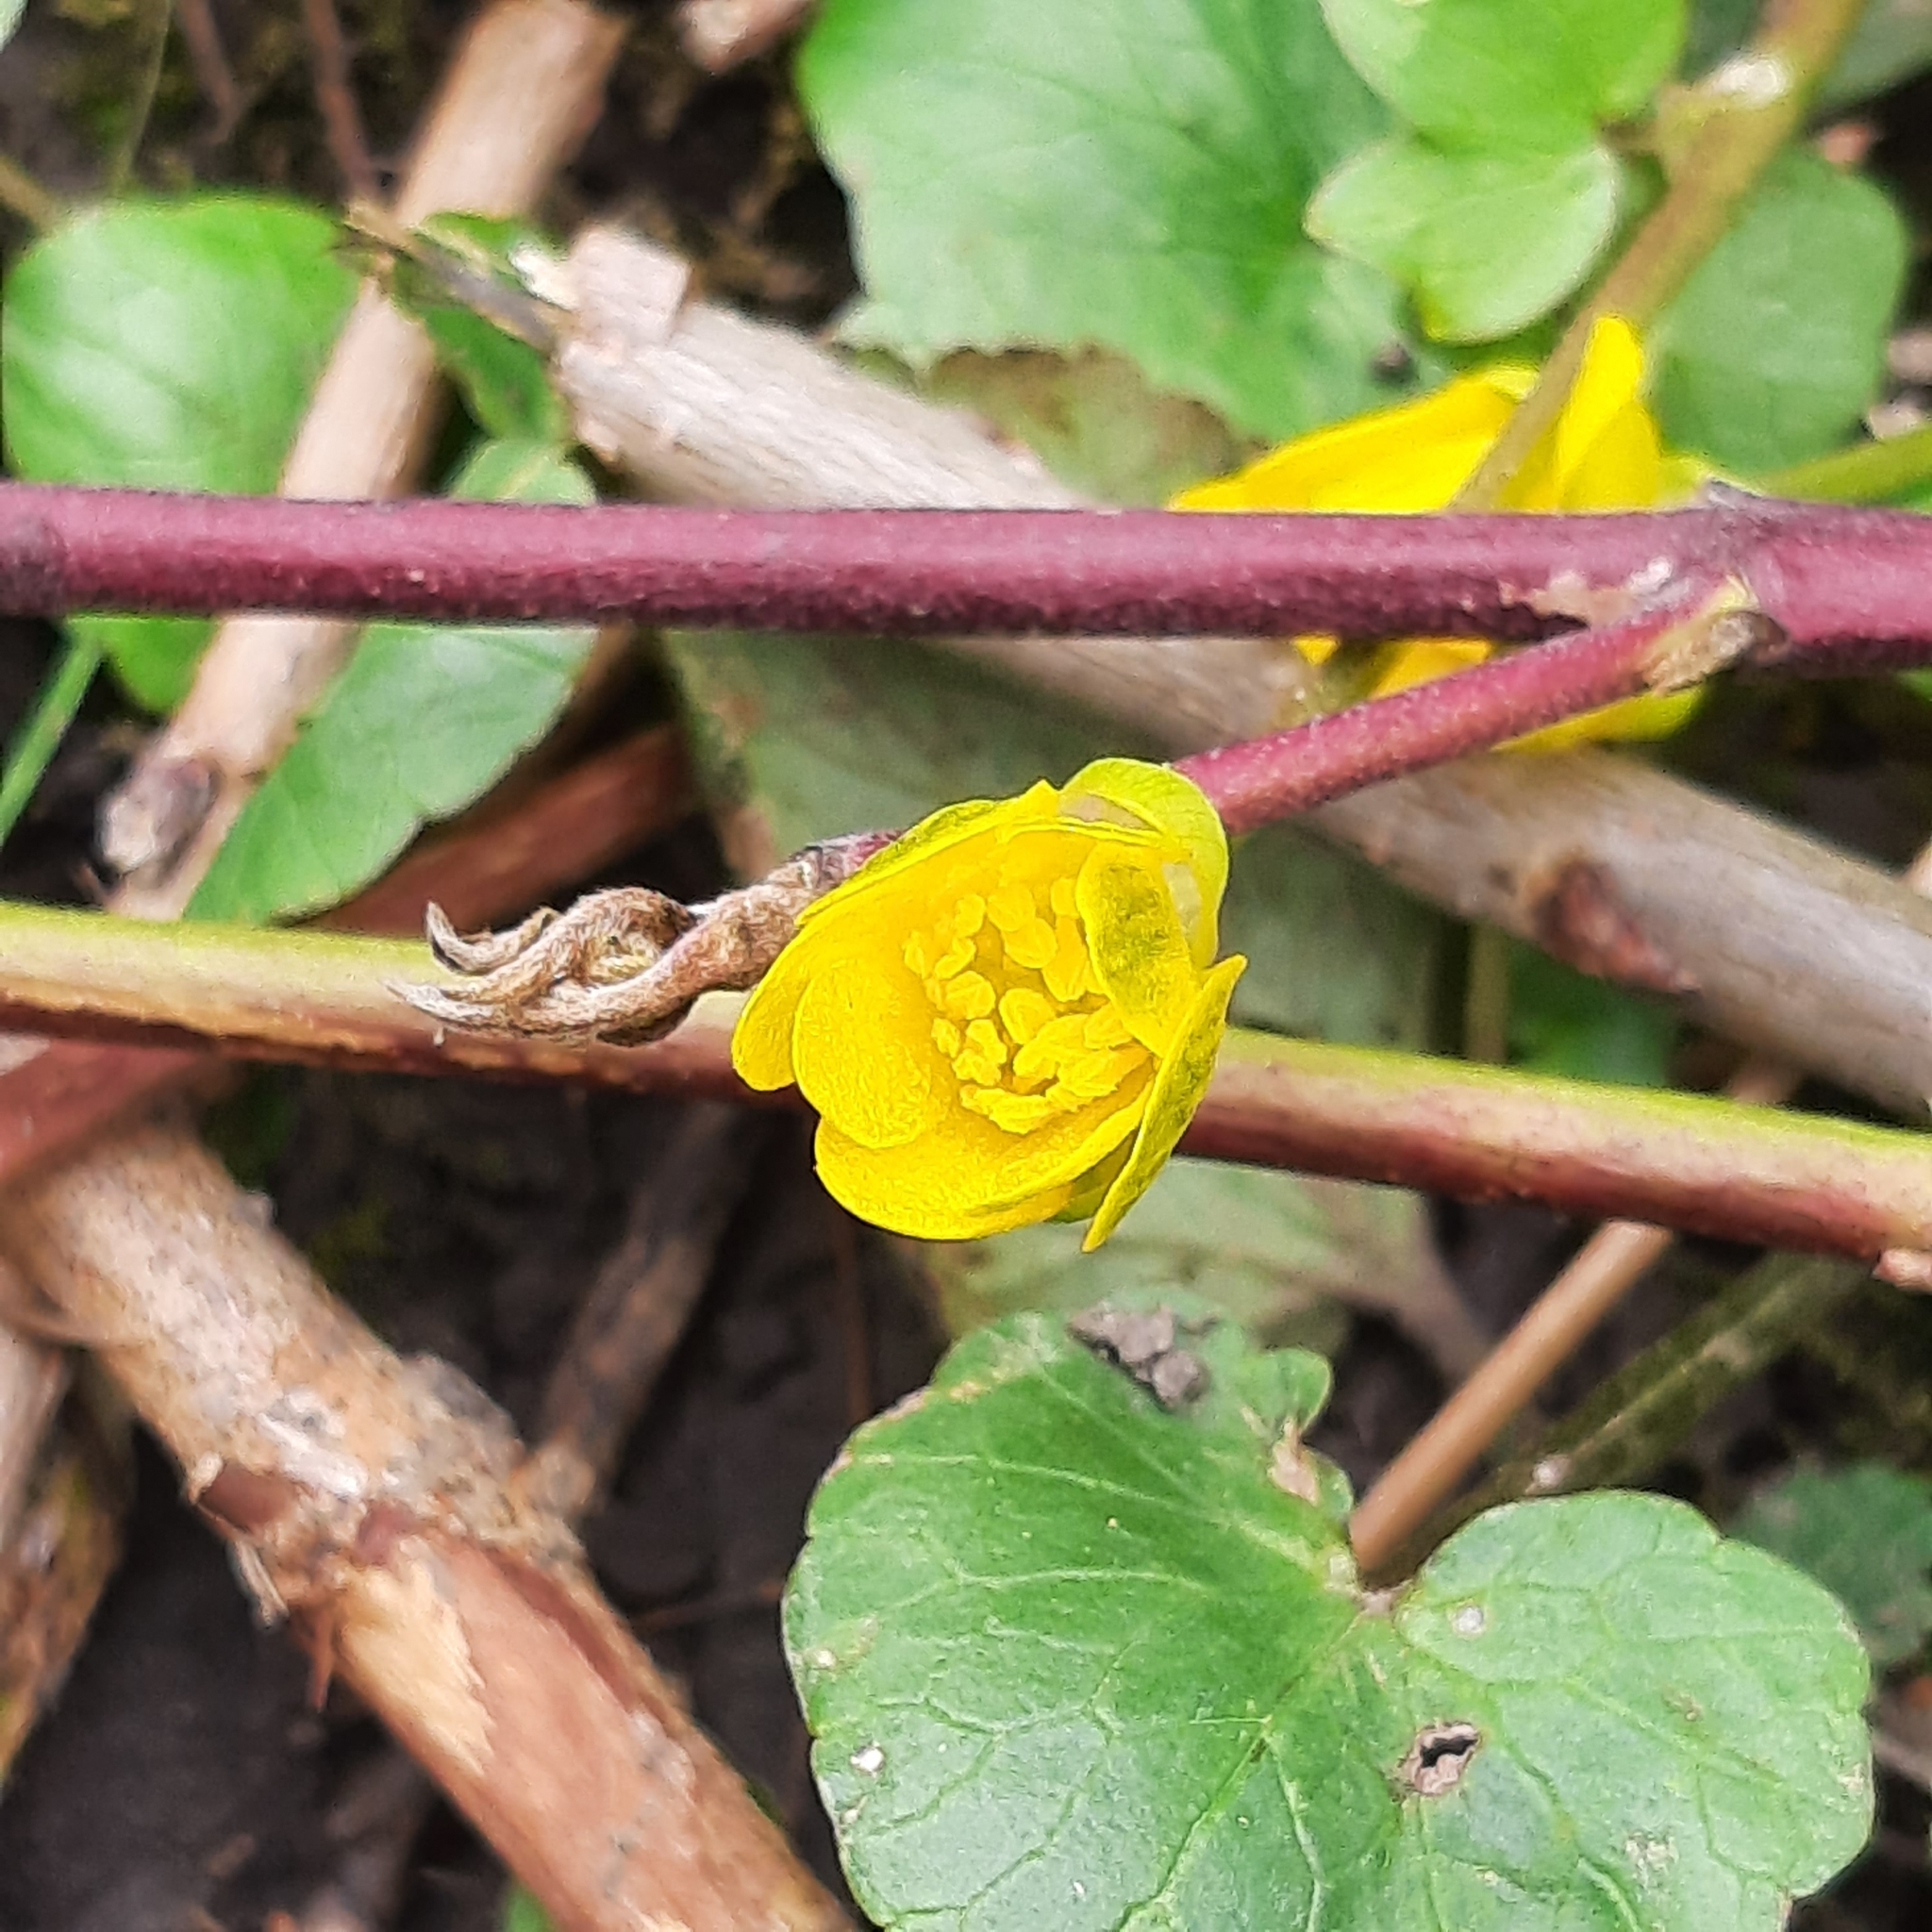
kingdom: Plantae
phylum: Tracheophyta
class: Magnoliopsida
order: Ranunculales
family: Ranunculaceae
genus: Ficaria
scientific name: Ficaria verna
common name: Lesser celandine
